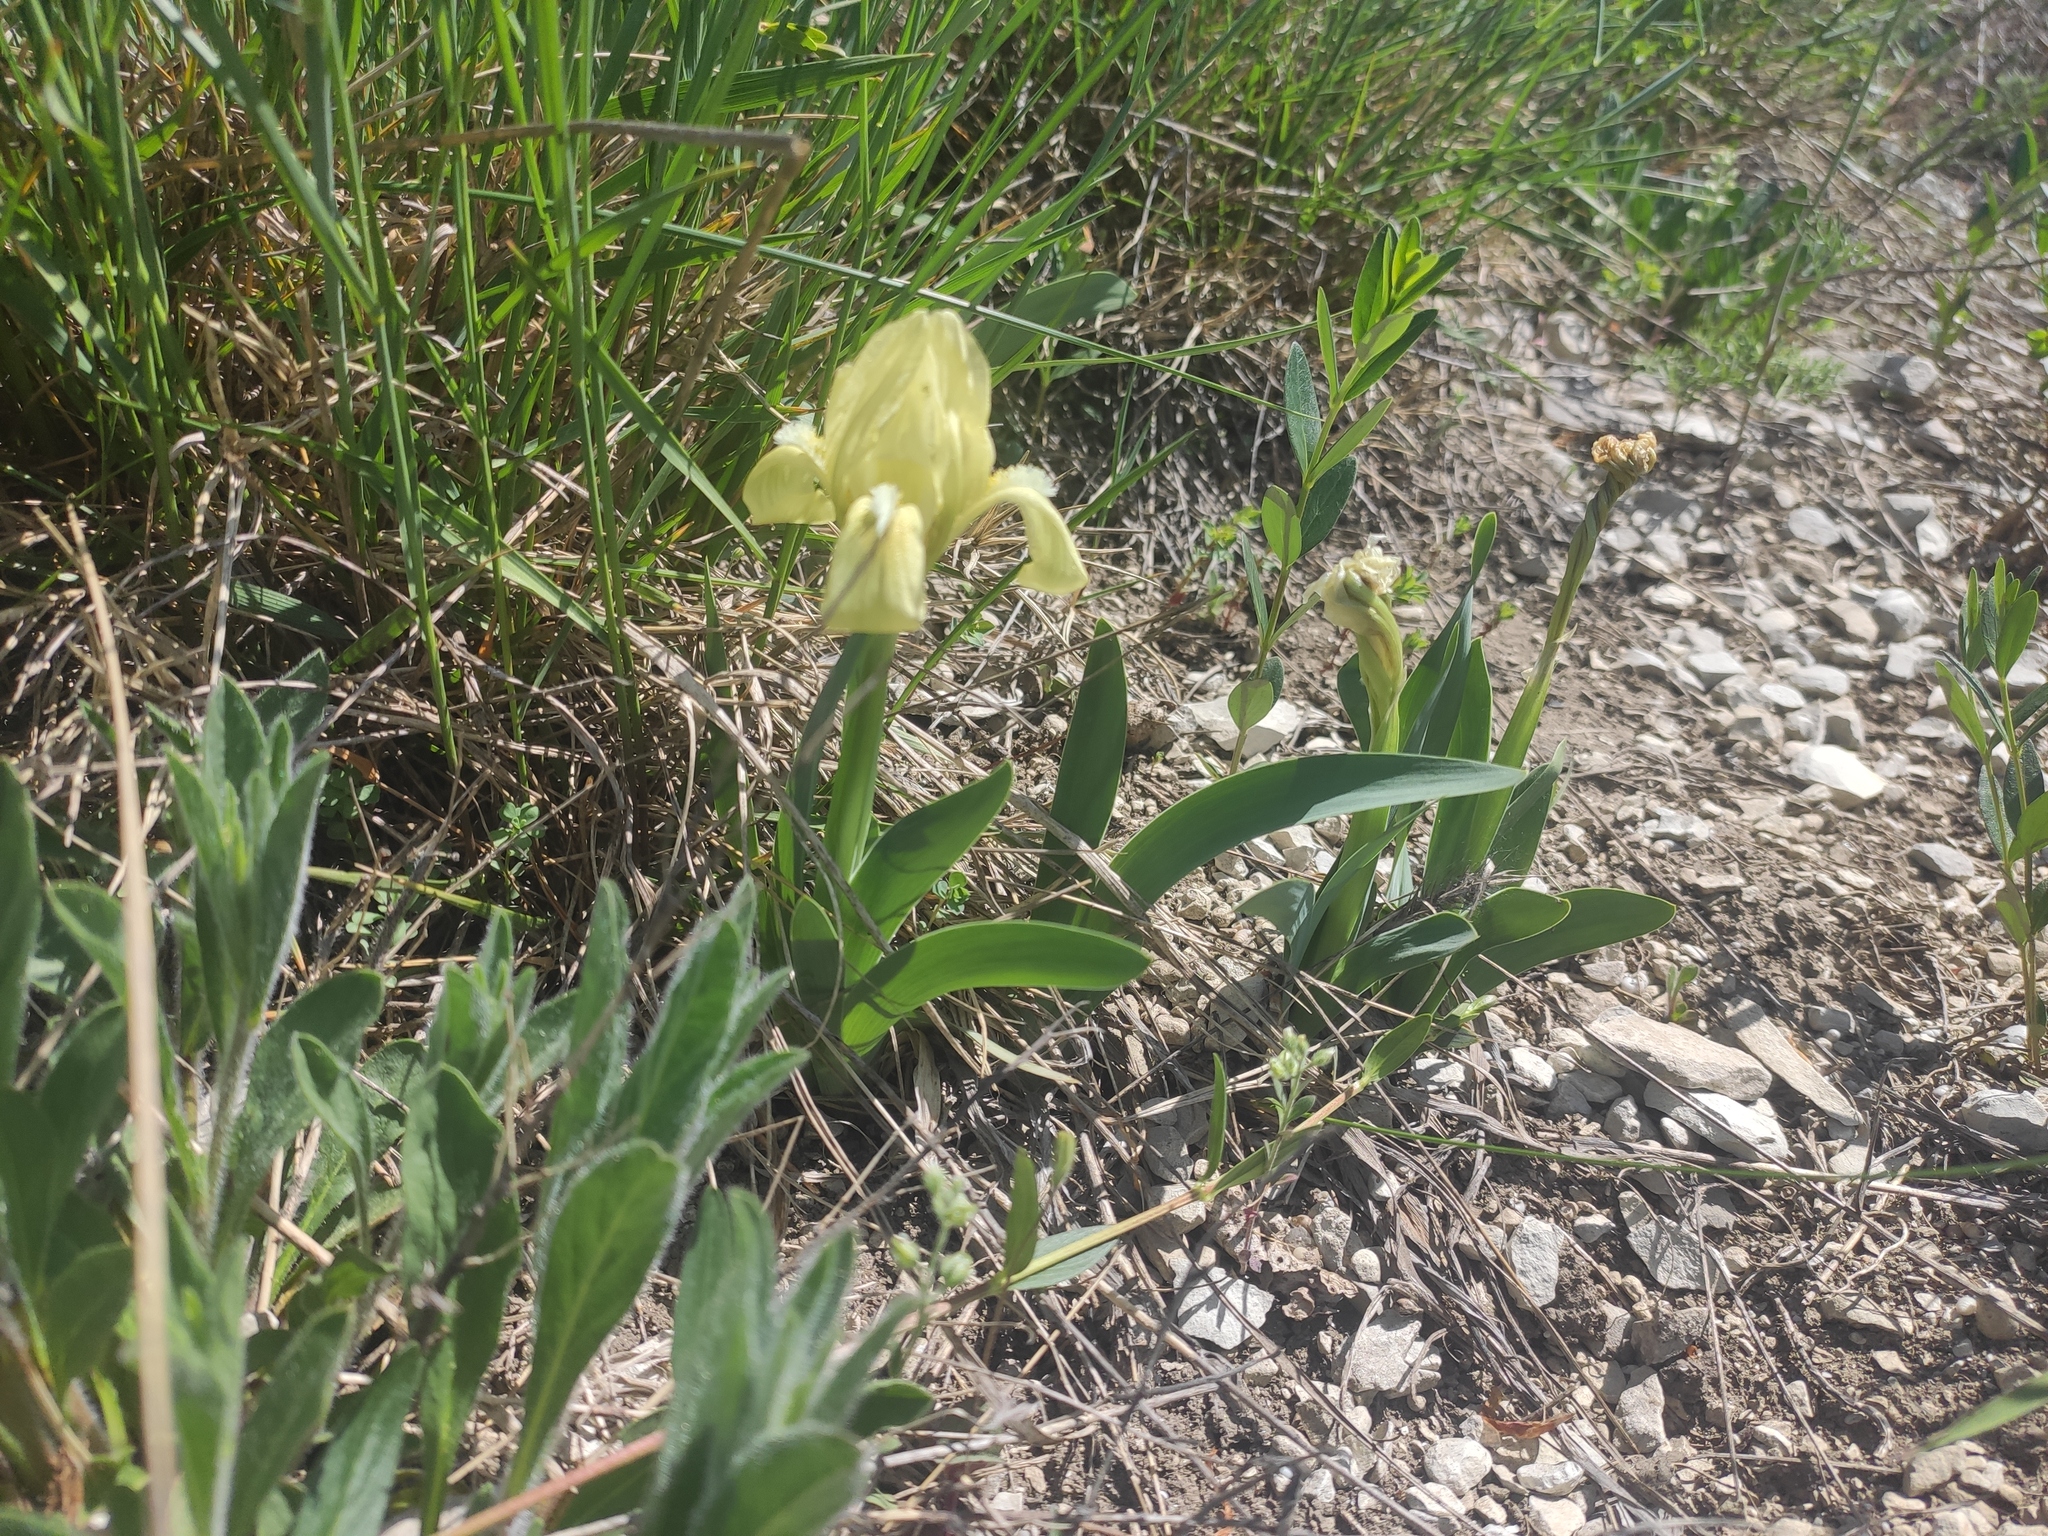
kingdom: Plantae
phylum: Tracheophyta
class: Liliopsida
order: Asparagales
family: Iridaceae
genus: Iris
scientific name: Iris pumila
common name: Dwarf iris
